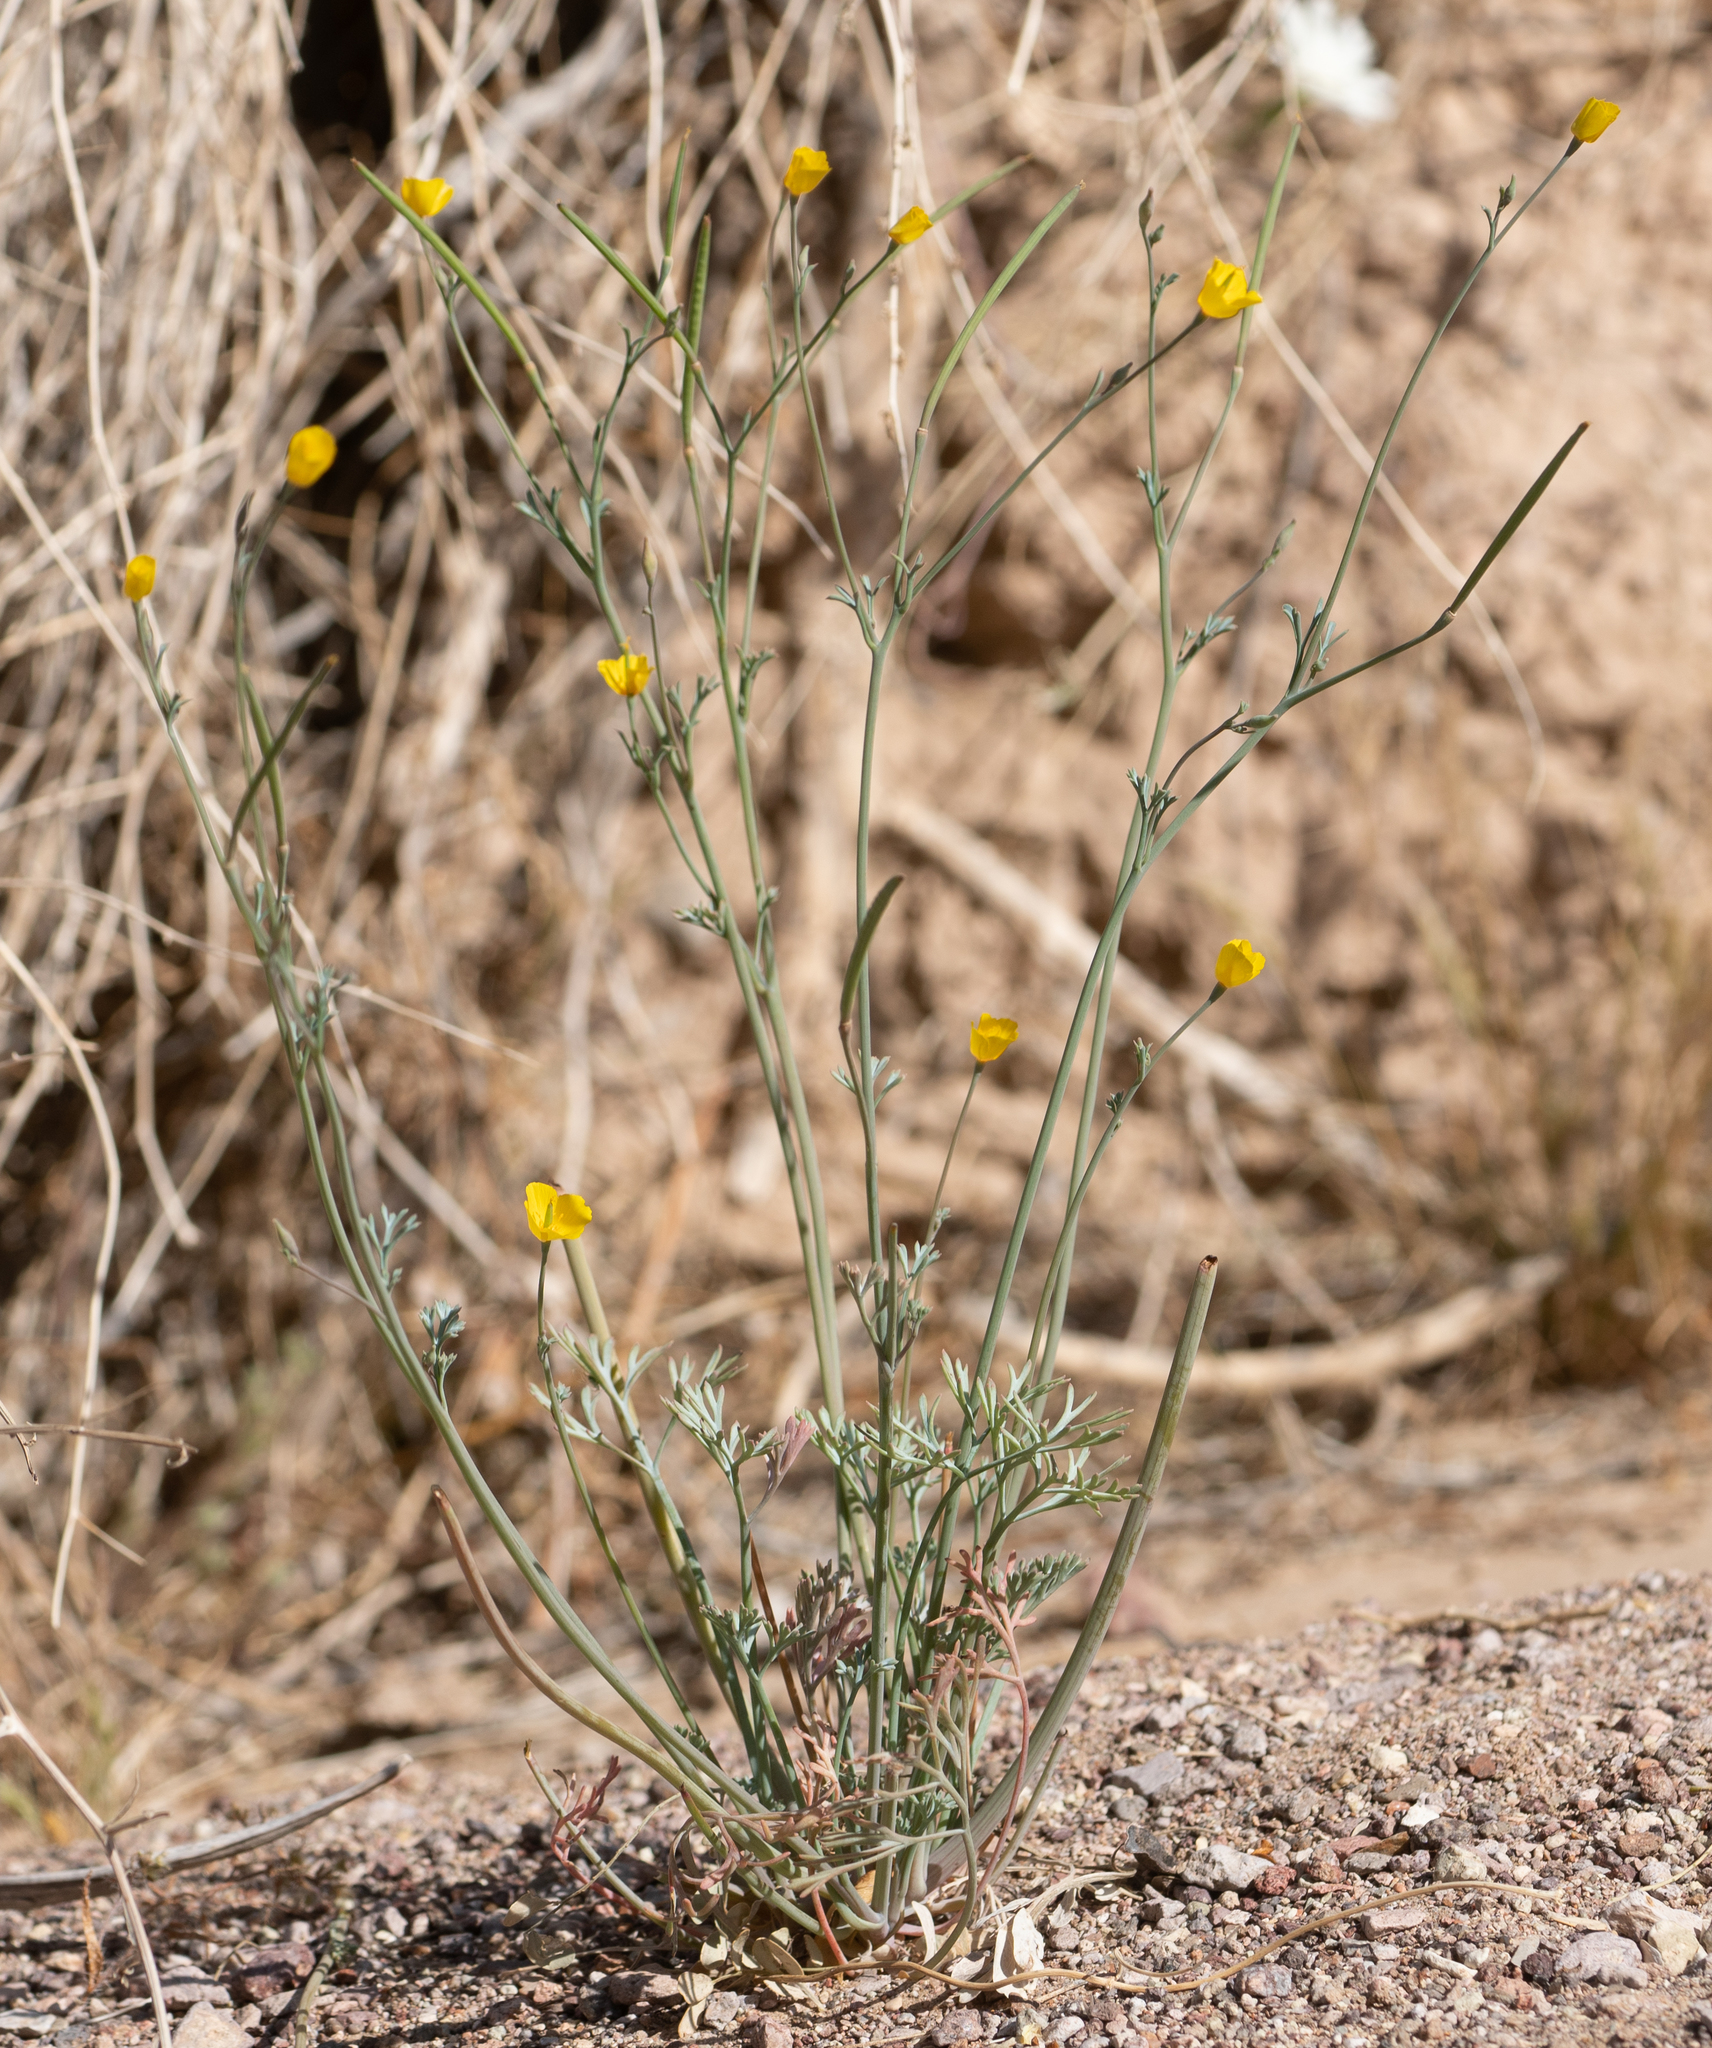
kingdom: Plantae
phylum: Tracheophyta
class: Magnoliopsida
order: Ranunculales
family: Papaveraceae
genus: Eschscholzia
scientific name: Eschscholzia minutiflora
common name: Small-flower california-poppy
